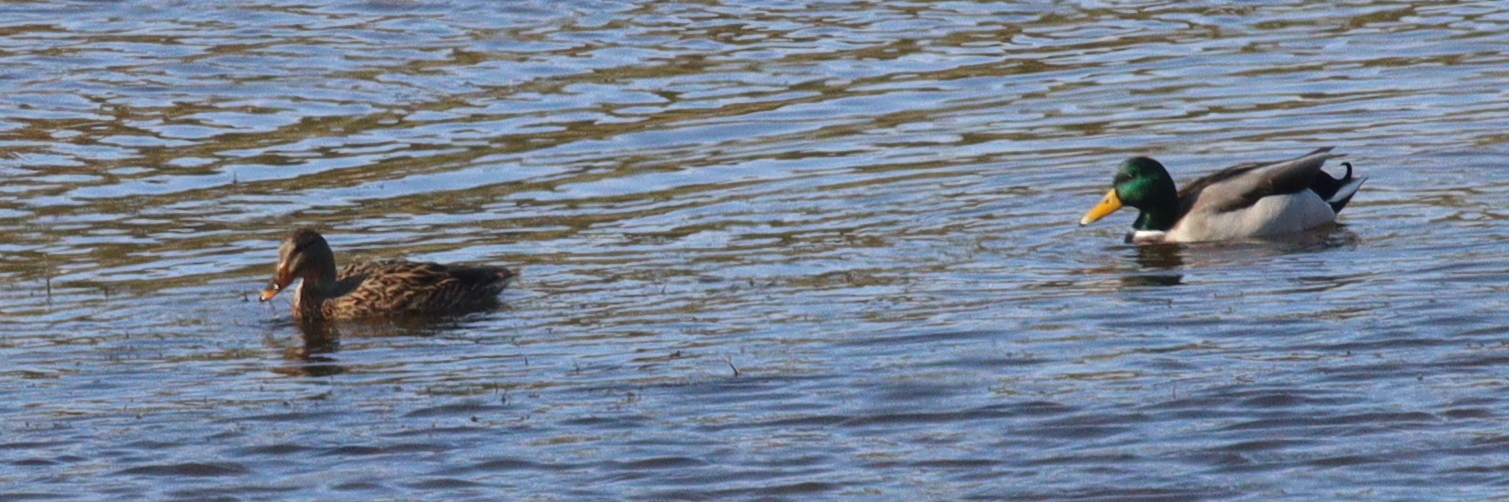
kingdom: Animalia
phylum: Chordata
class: Aves
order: Anseriformes
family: Anatidae
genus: Anas
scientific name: Anas platyrhynchos
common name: Mallard
